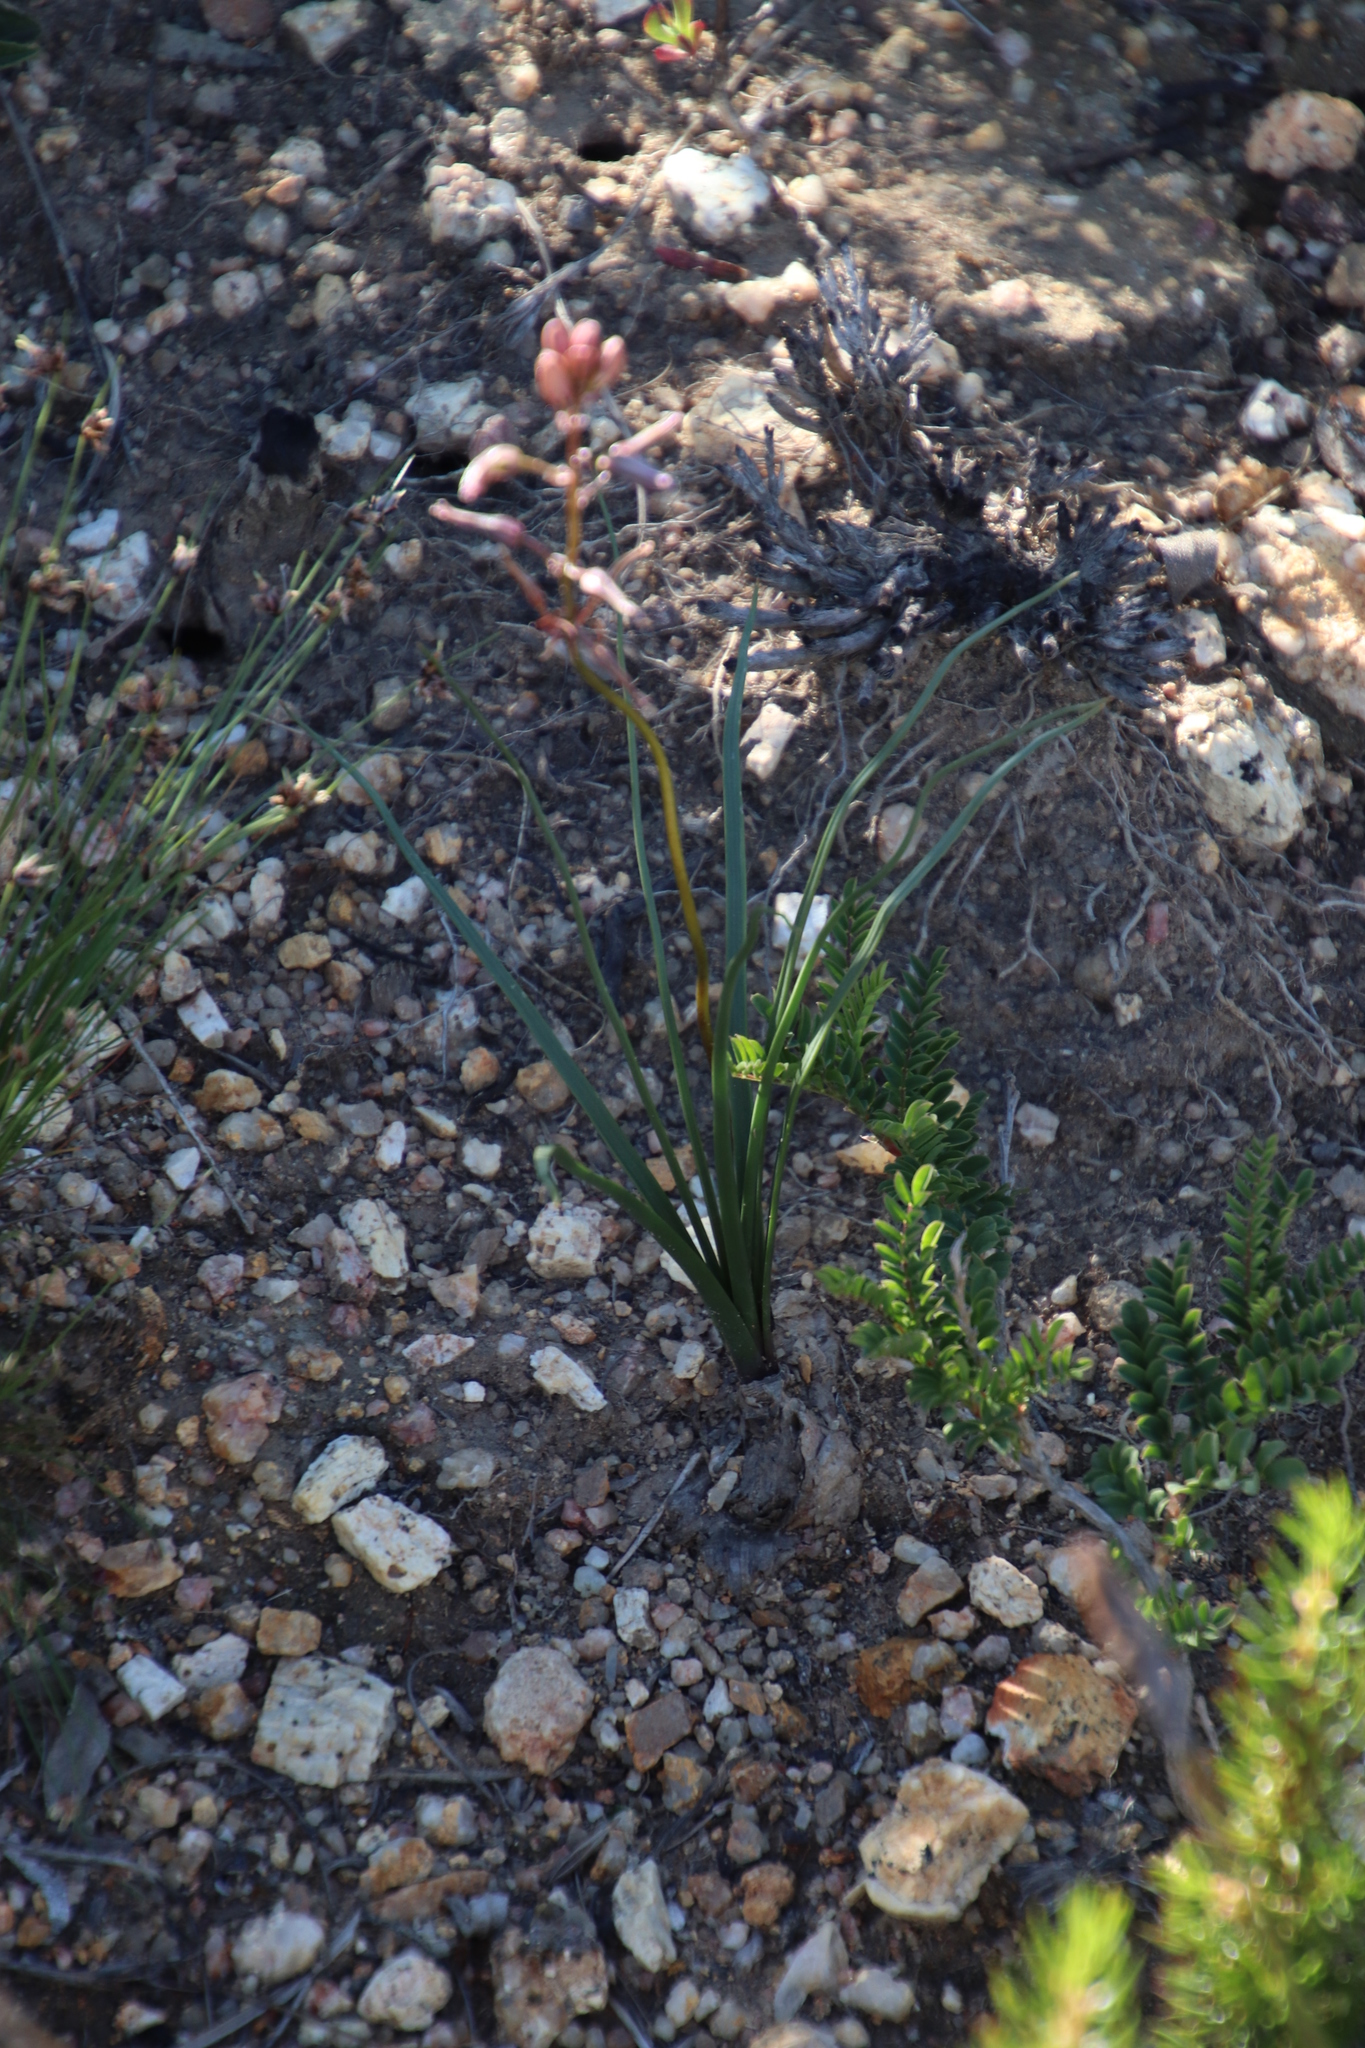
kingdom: Plantae
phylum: Tracheophyta
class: Liliopsida
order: Asparagales
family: Asparagaceae
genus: Drimia
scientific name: Drimia exuviata
